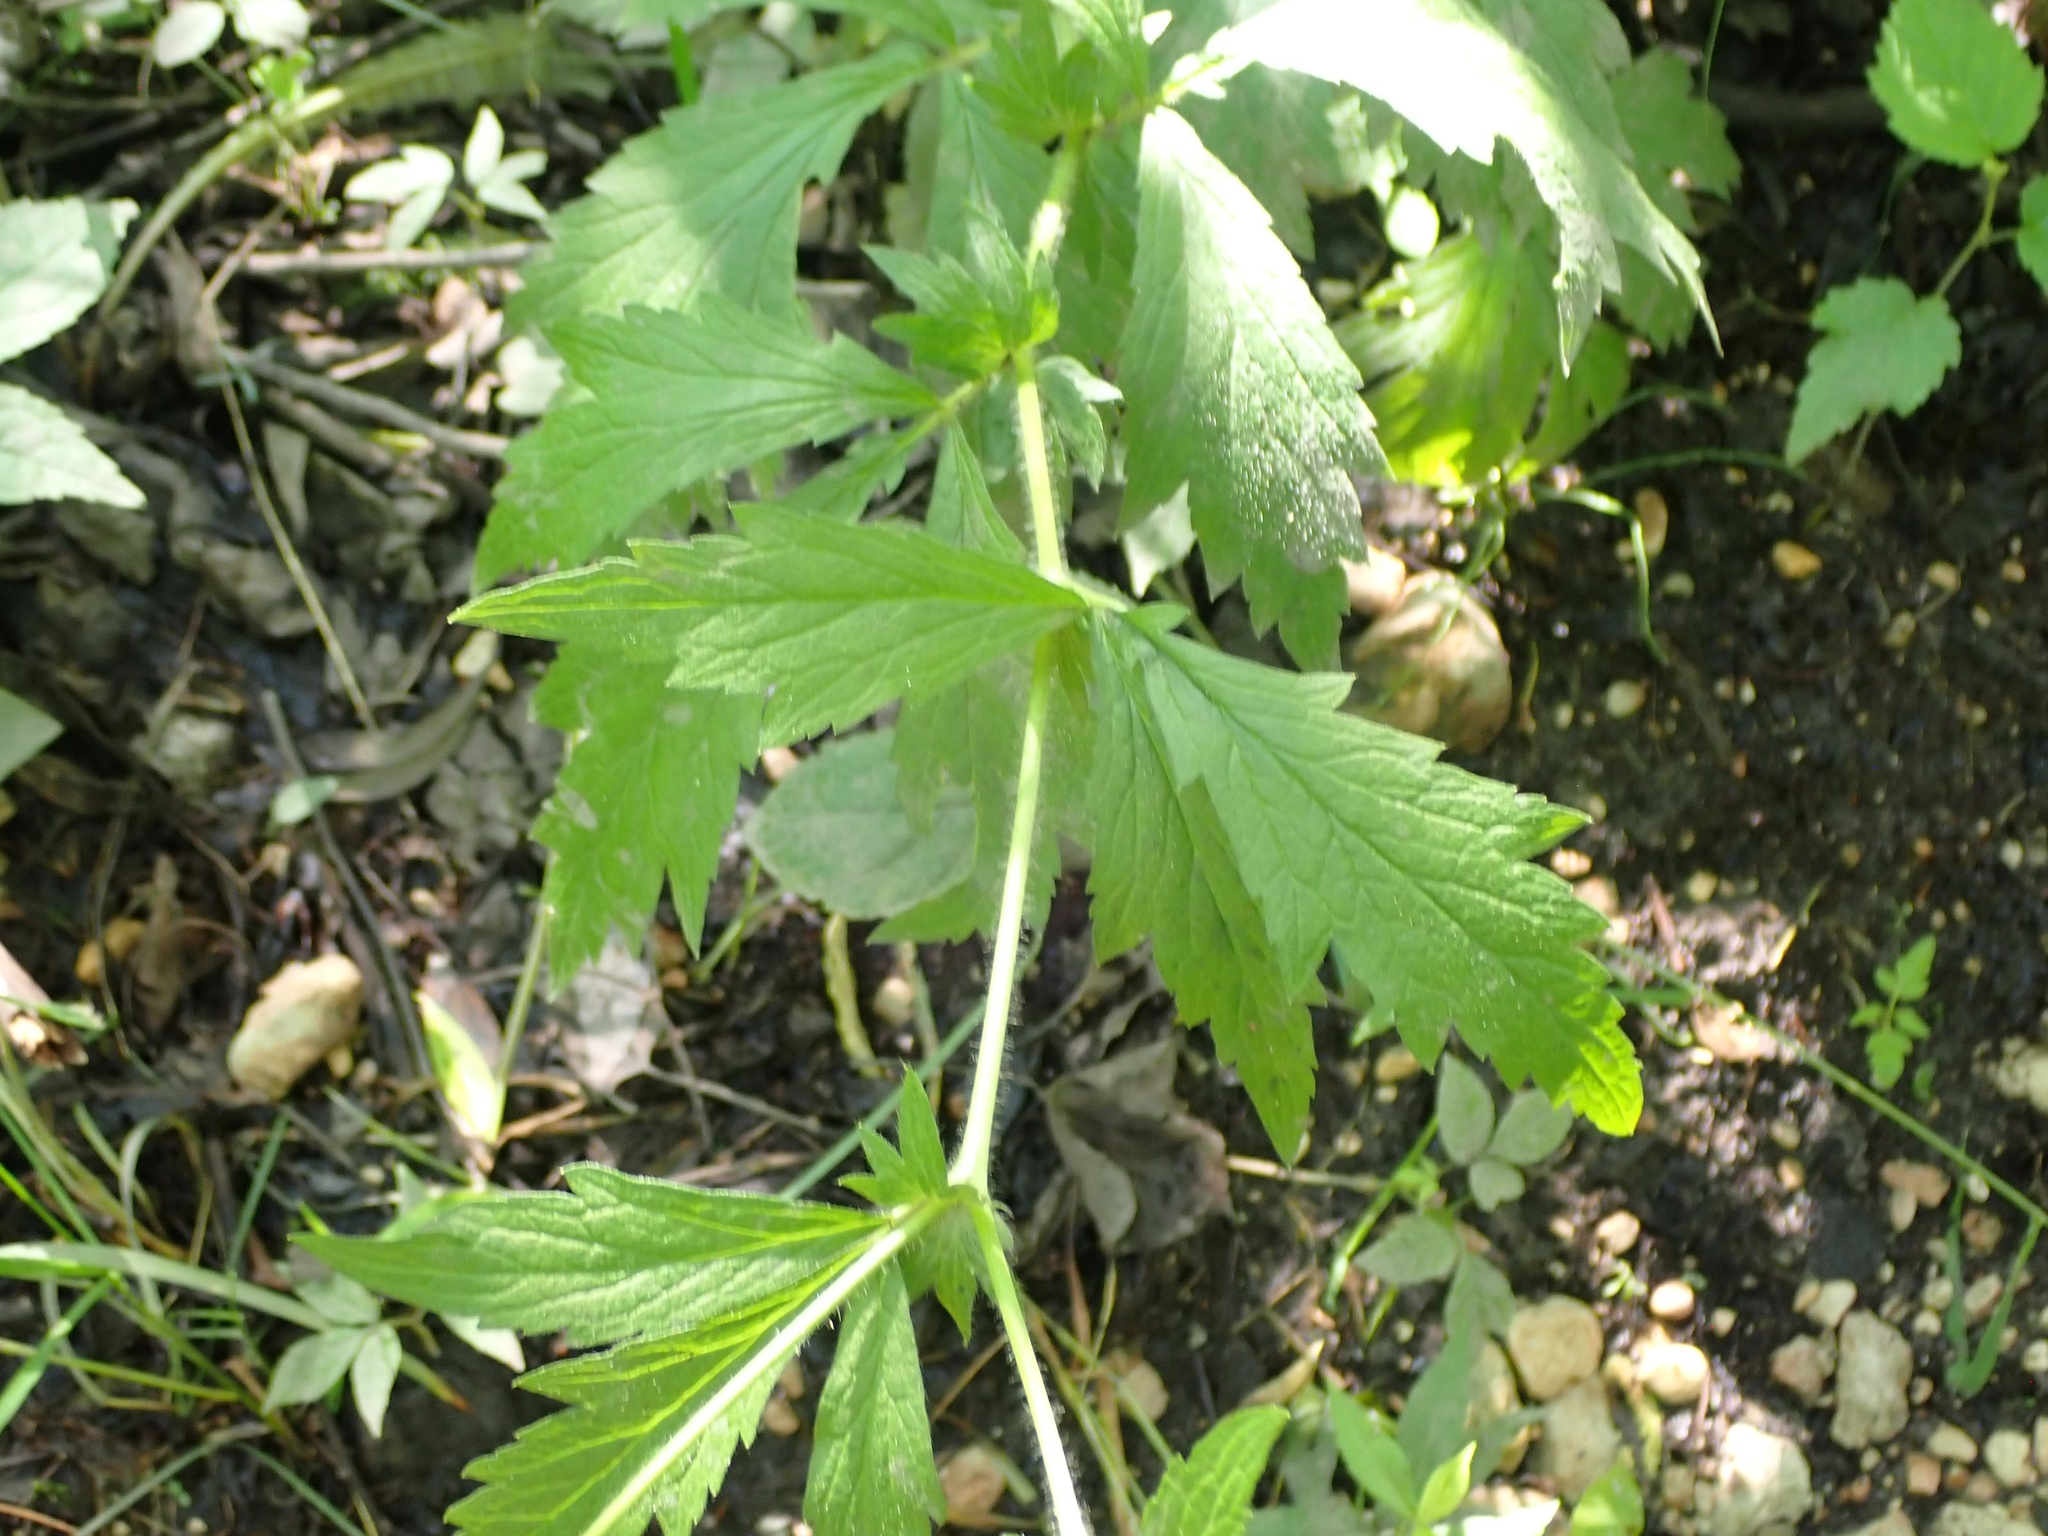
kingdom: Plantae
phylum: Tracheophyta
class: Magnoliopsida
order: Rosales
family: Rosaceae
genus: Geum
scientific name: Geum aleppicum
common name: Yellow avens
